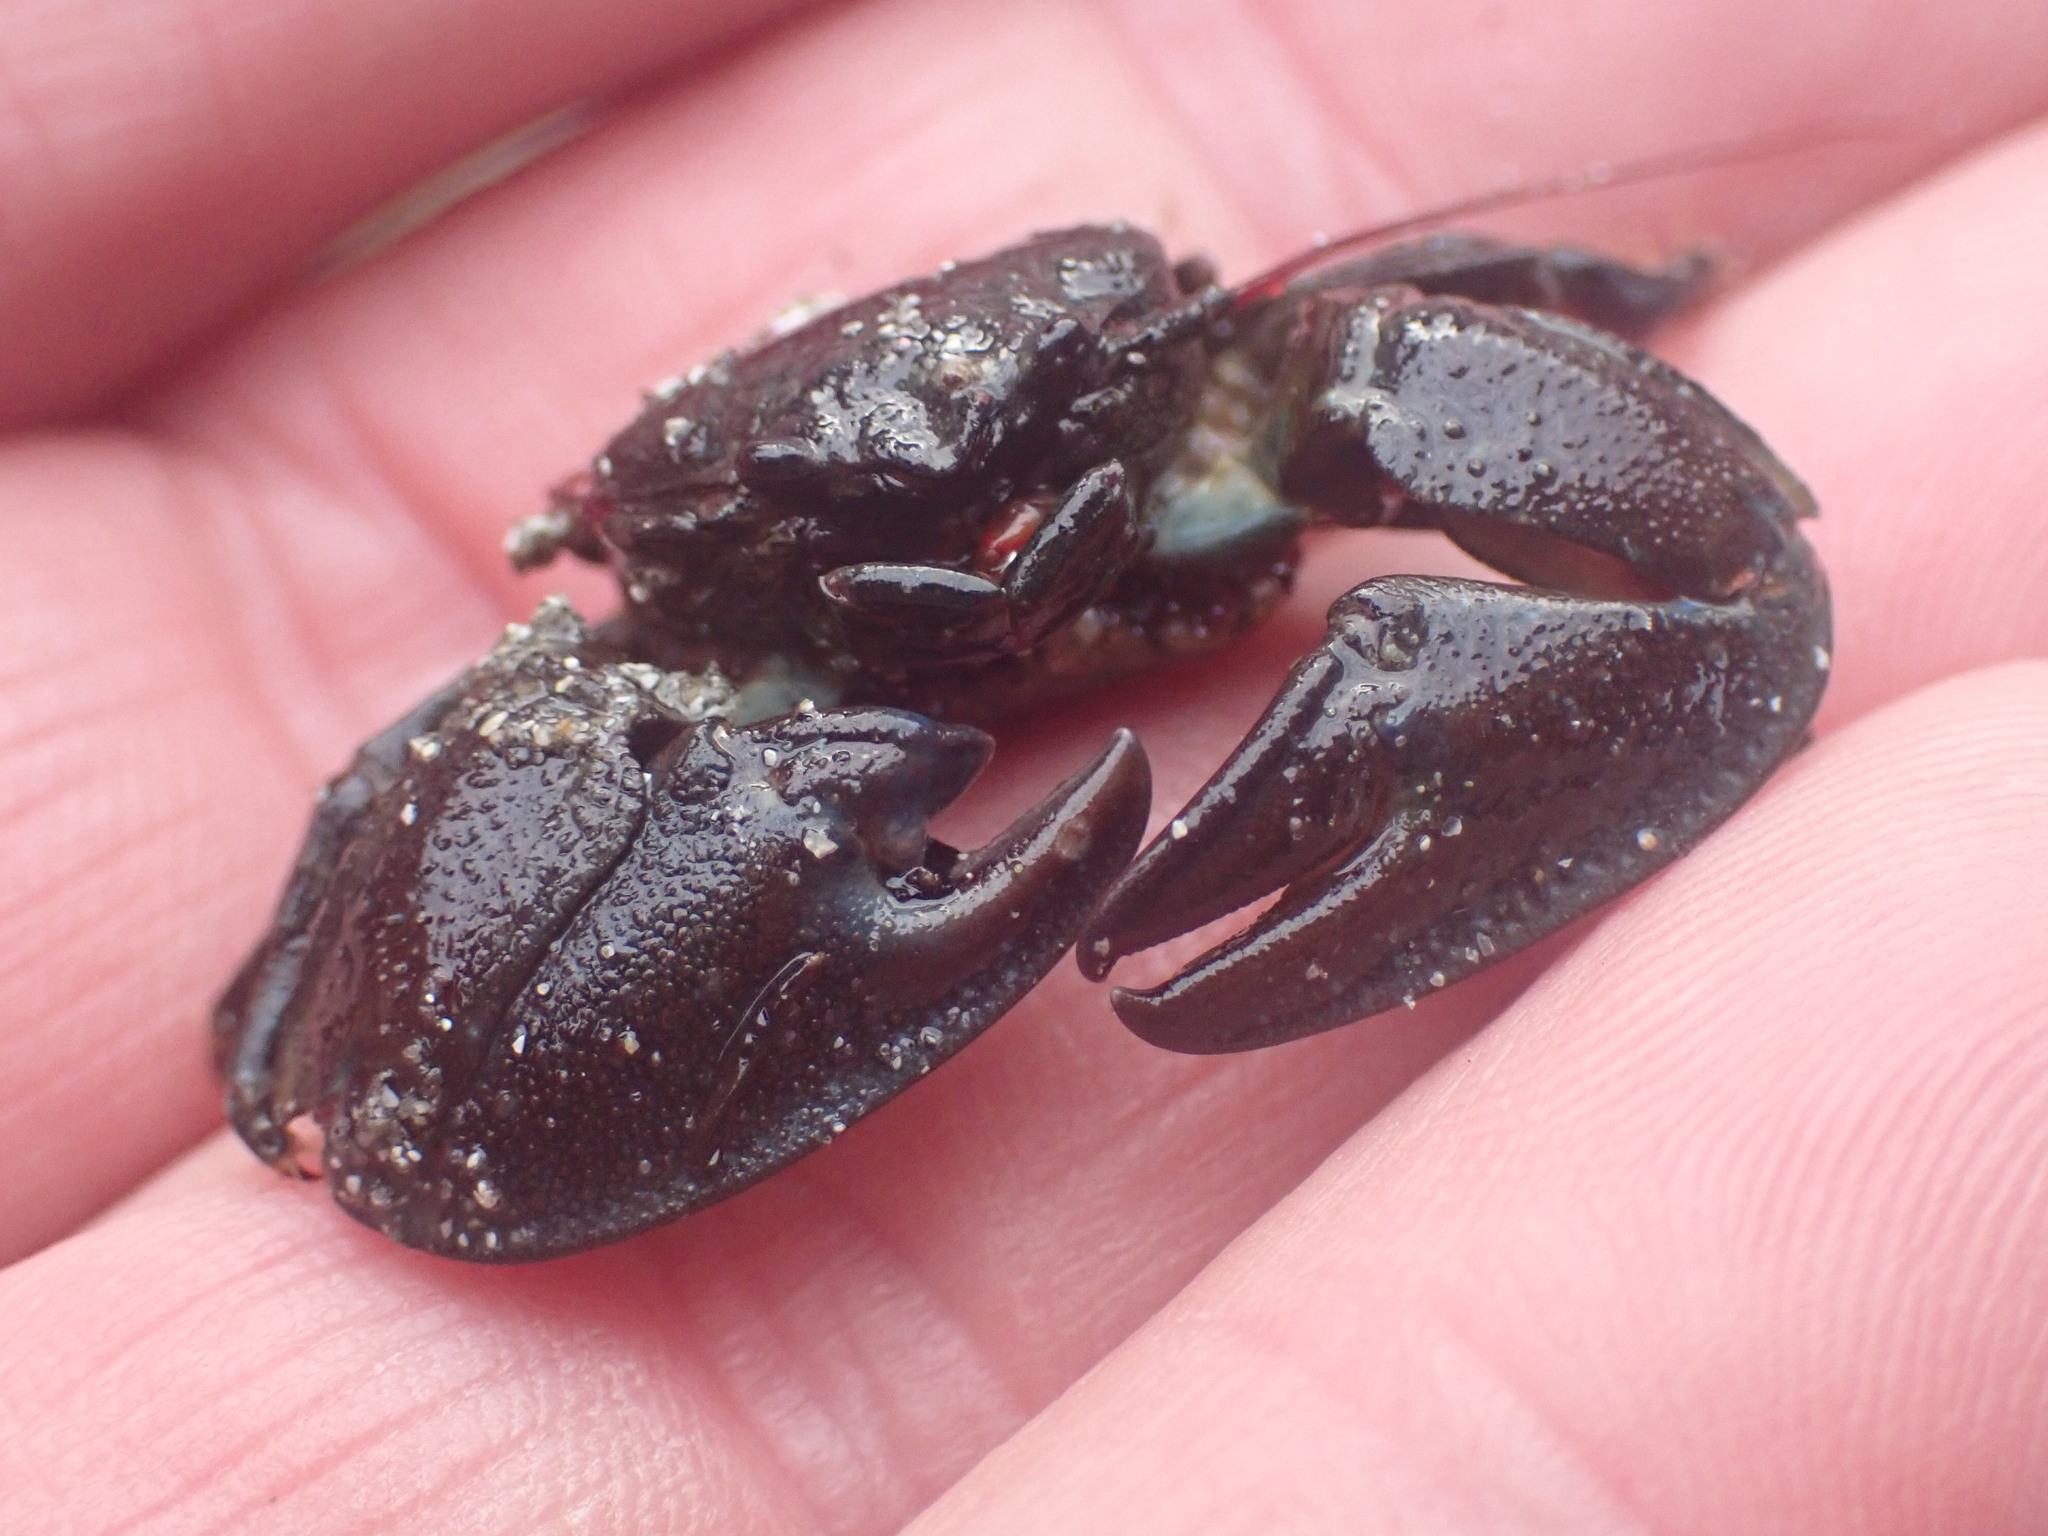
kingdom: Animalia
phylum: Arthropoda
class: Malacostraca
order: Decapoda
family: Porcellanidae
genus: Petrolisthes
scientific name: Petrolisthes cinctipes
